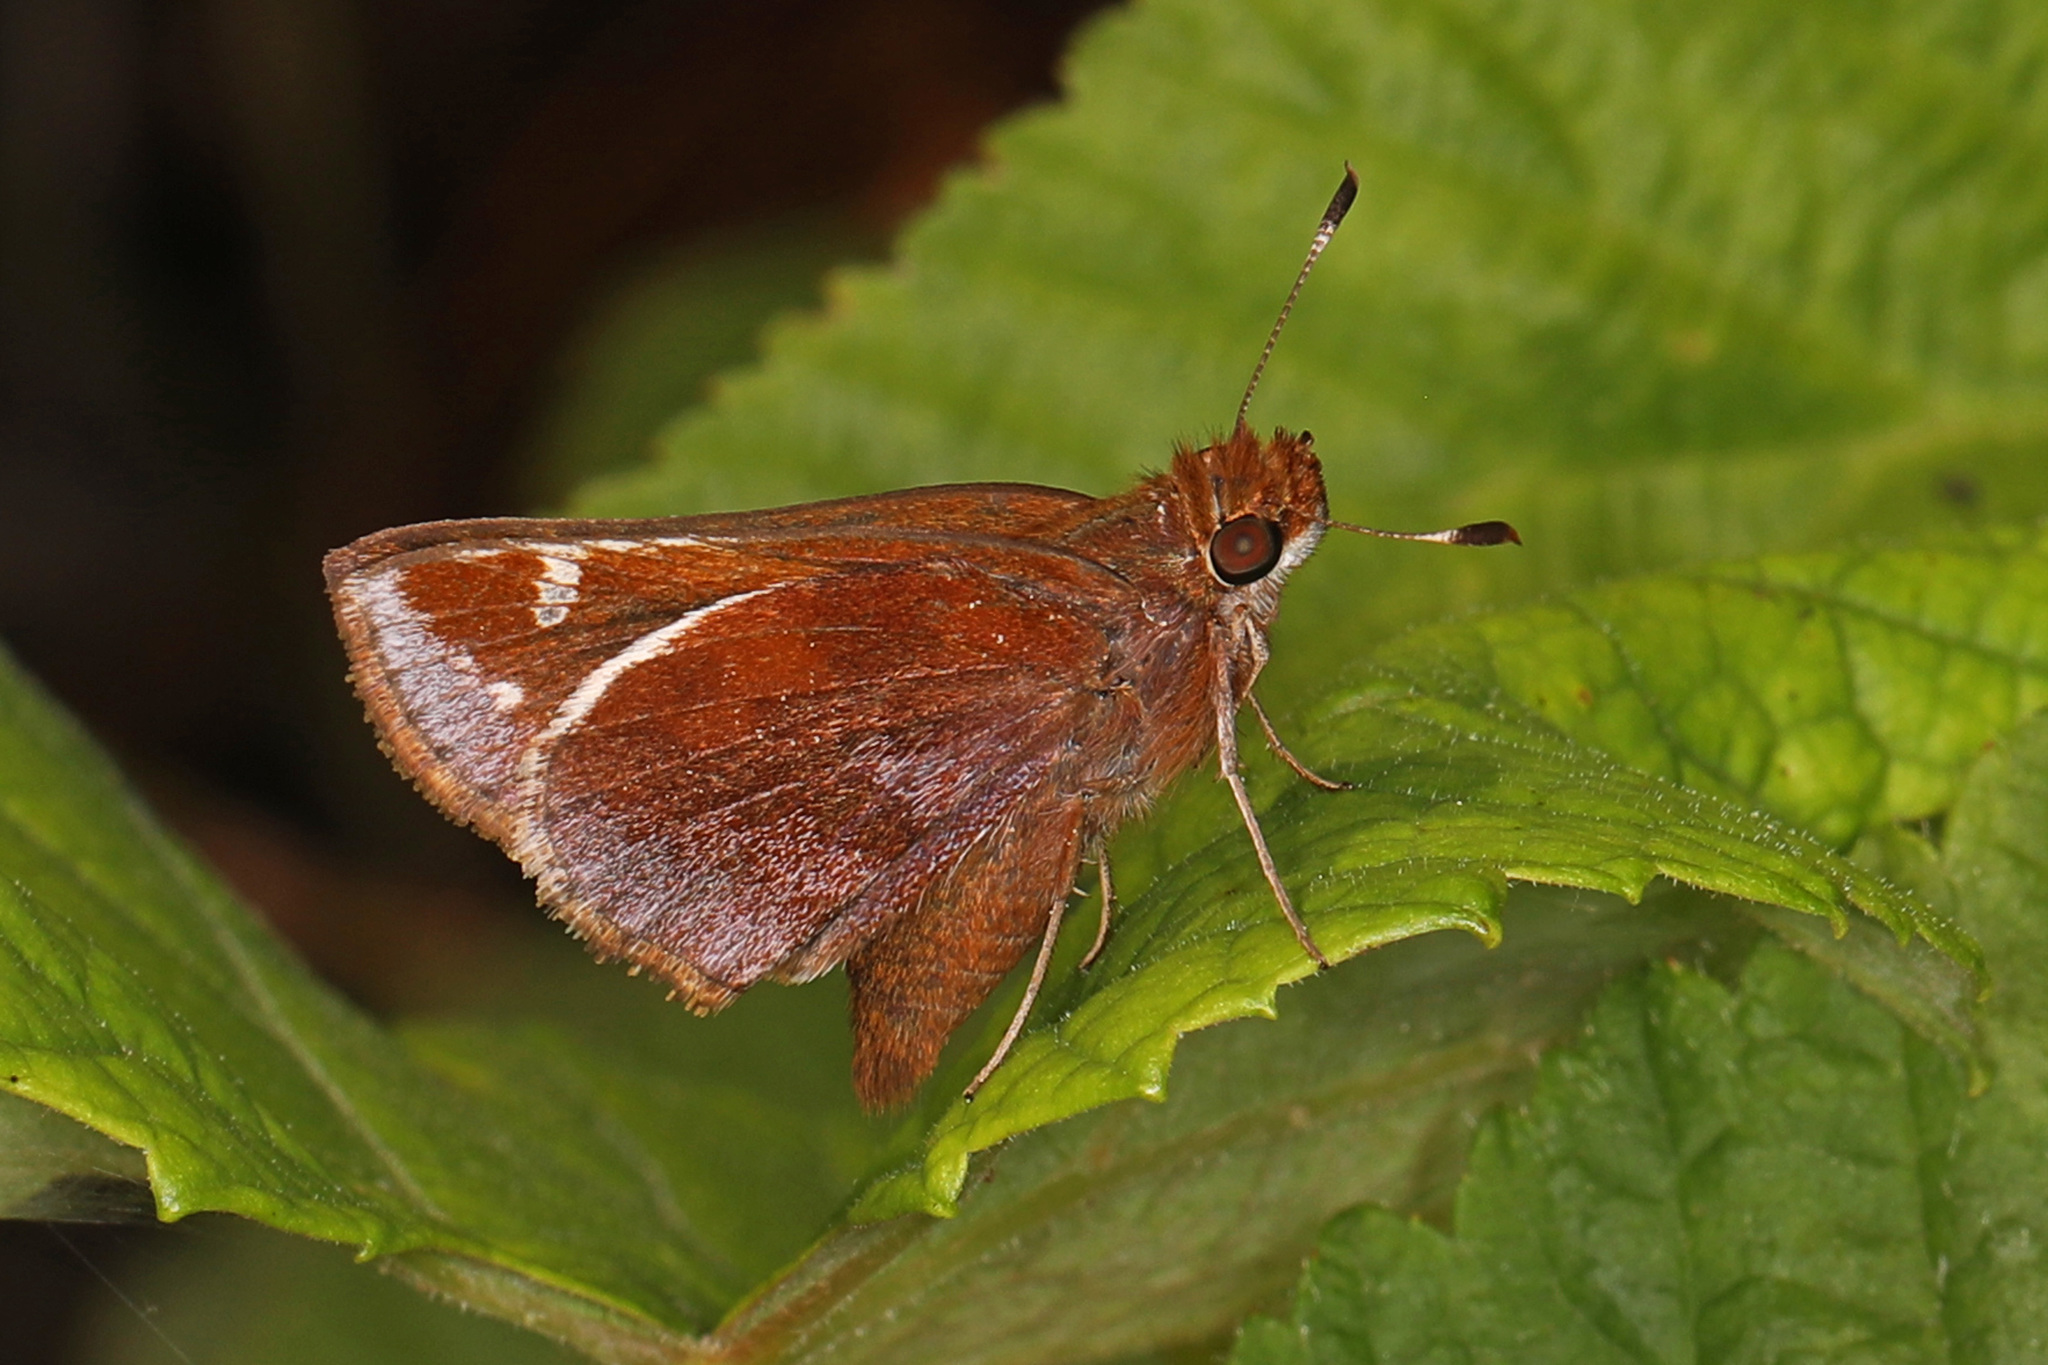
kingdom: Animalia
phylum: Arthropoda
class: Insecta
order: Lepidoptera
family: Hesperiidae
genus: Lon
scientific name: Lon zabulon
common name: Zabulon skipper
